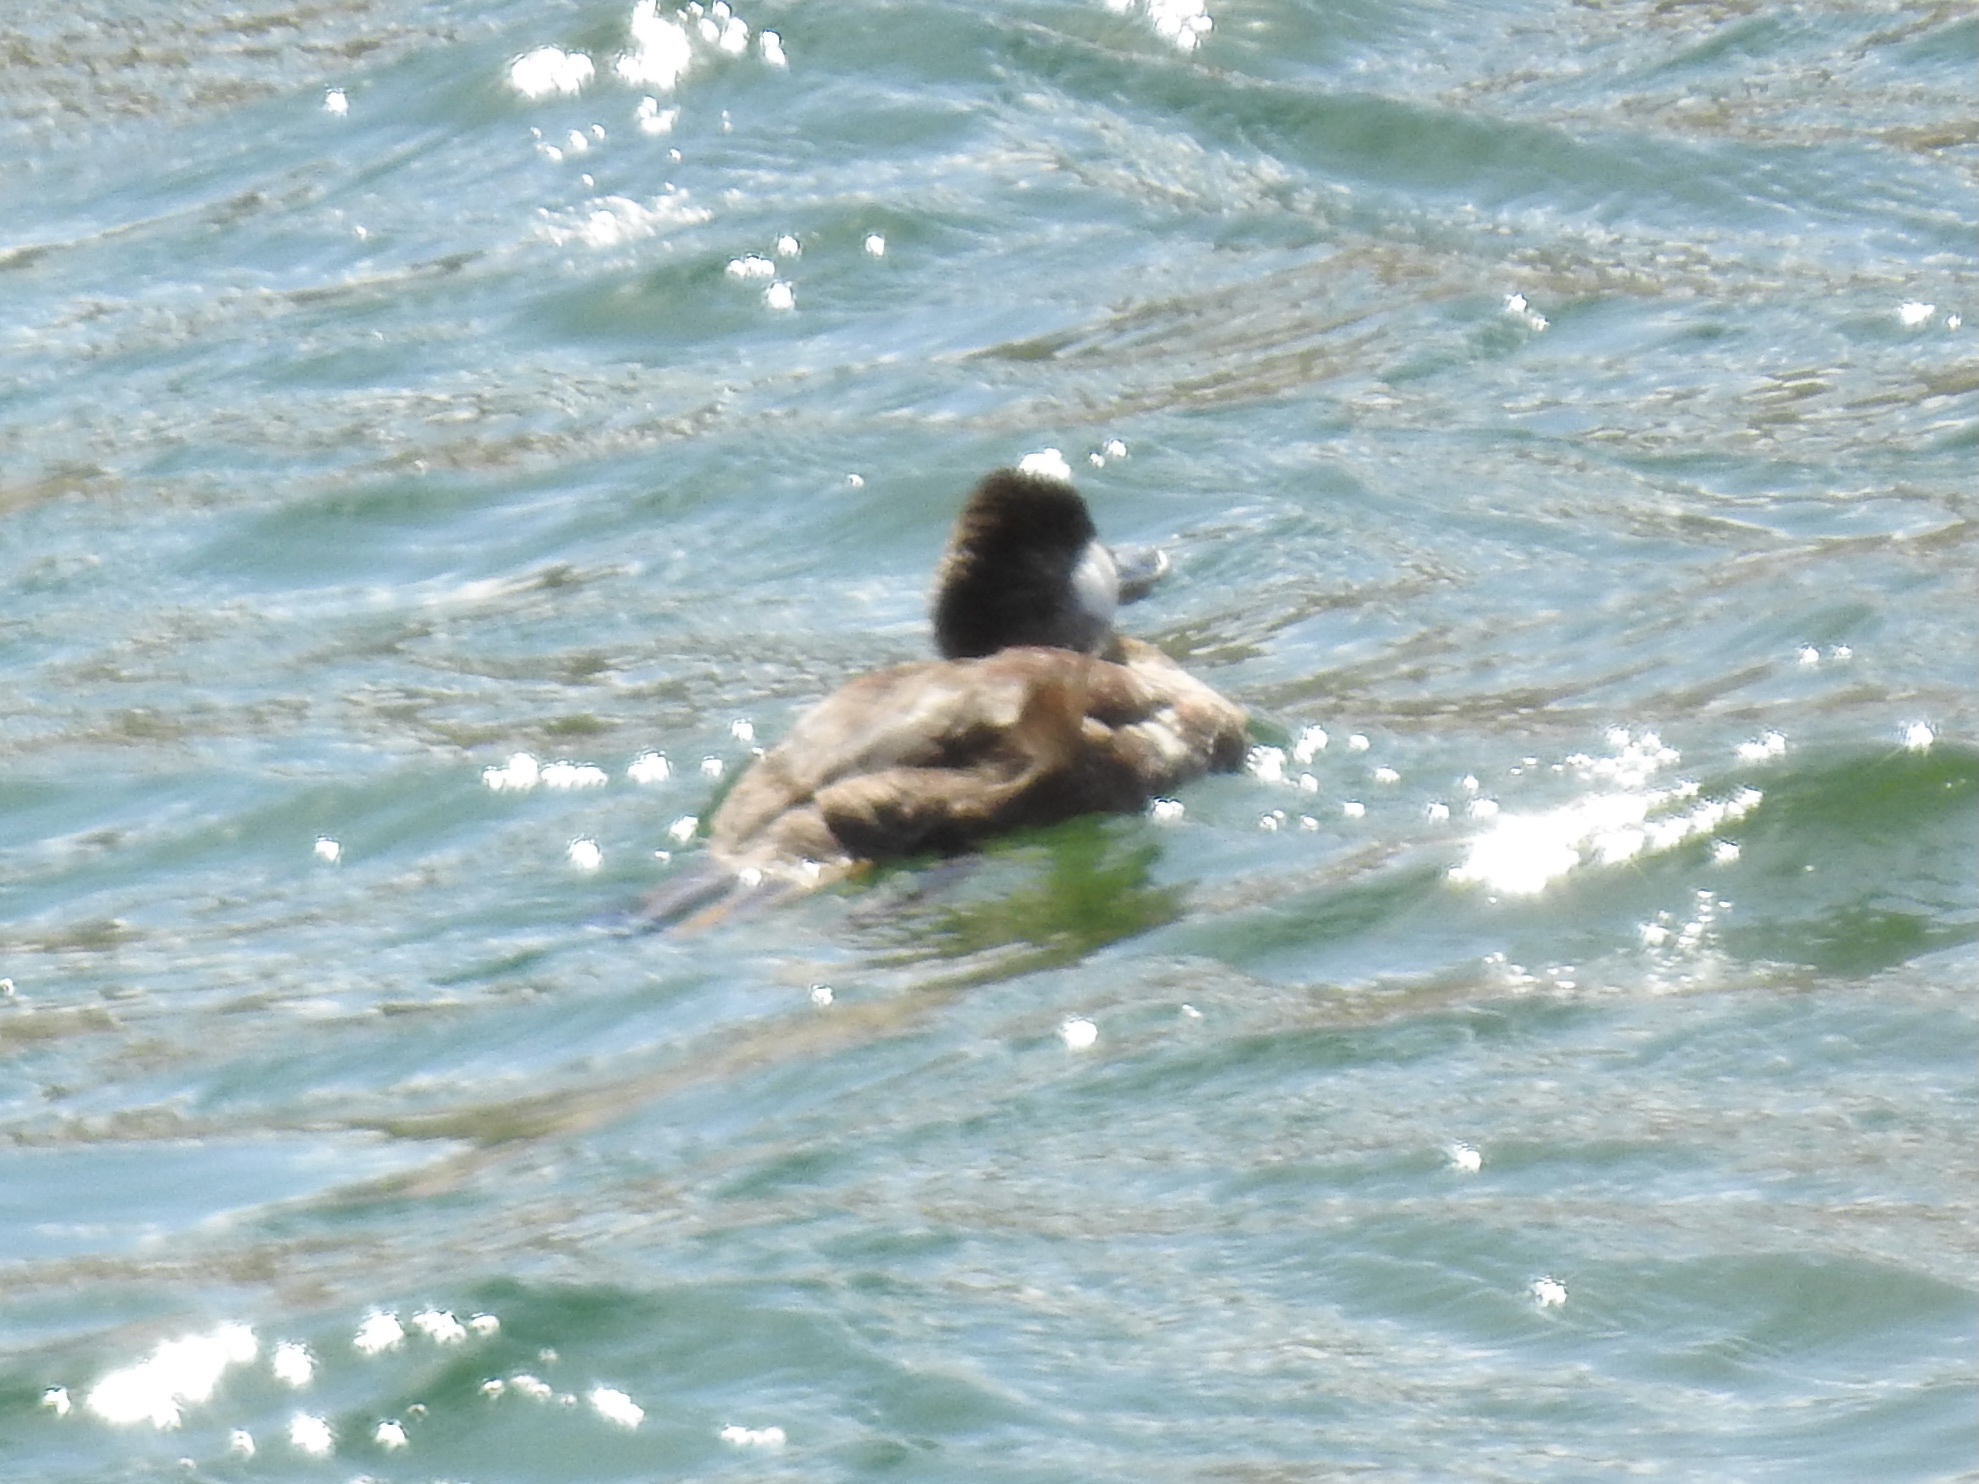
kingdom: Animalia
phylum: Chordata
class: Aves
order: Anseriformes
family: Anatidae
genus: Oxyura
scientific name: Oxyura jamaicensis
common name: Ruddy duck
